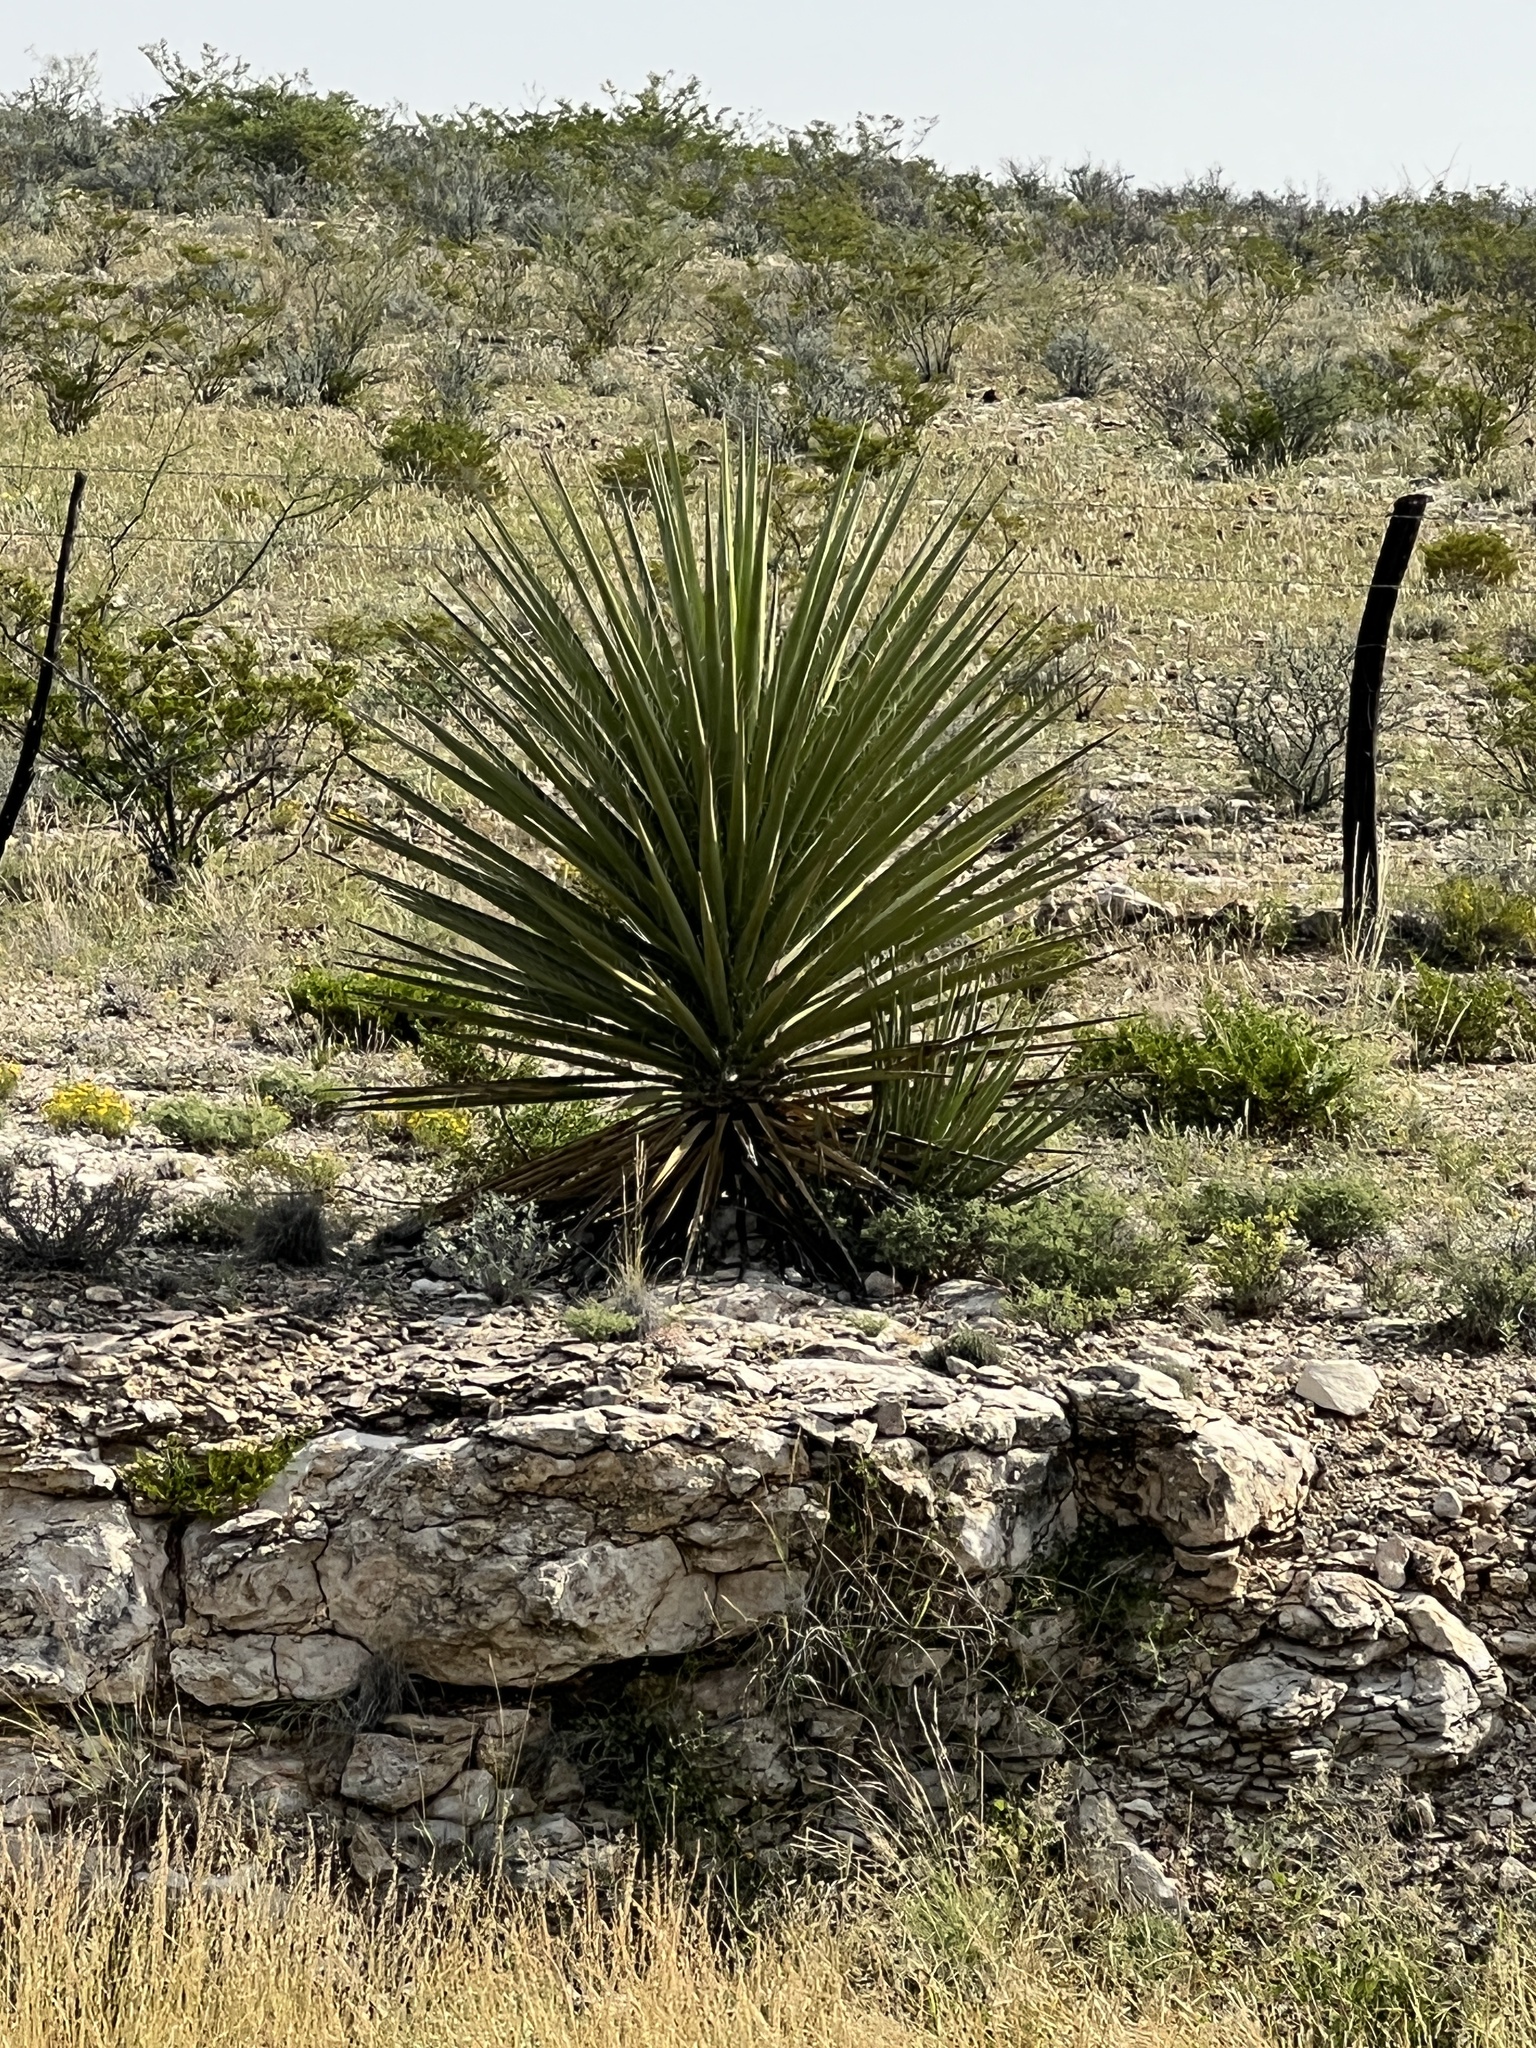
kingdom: Plantae
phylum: Tracheophyta
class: Liliopsida
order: Asparagales
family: Asparagaceae
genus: Yucca
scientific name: Yucca treculiana
